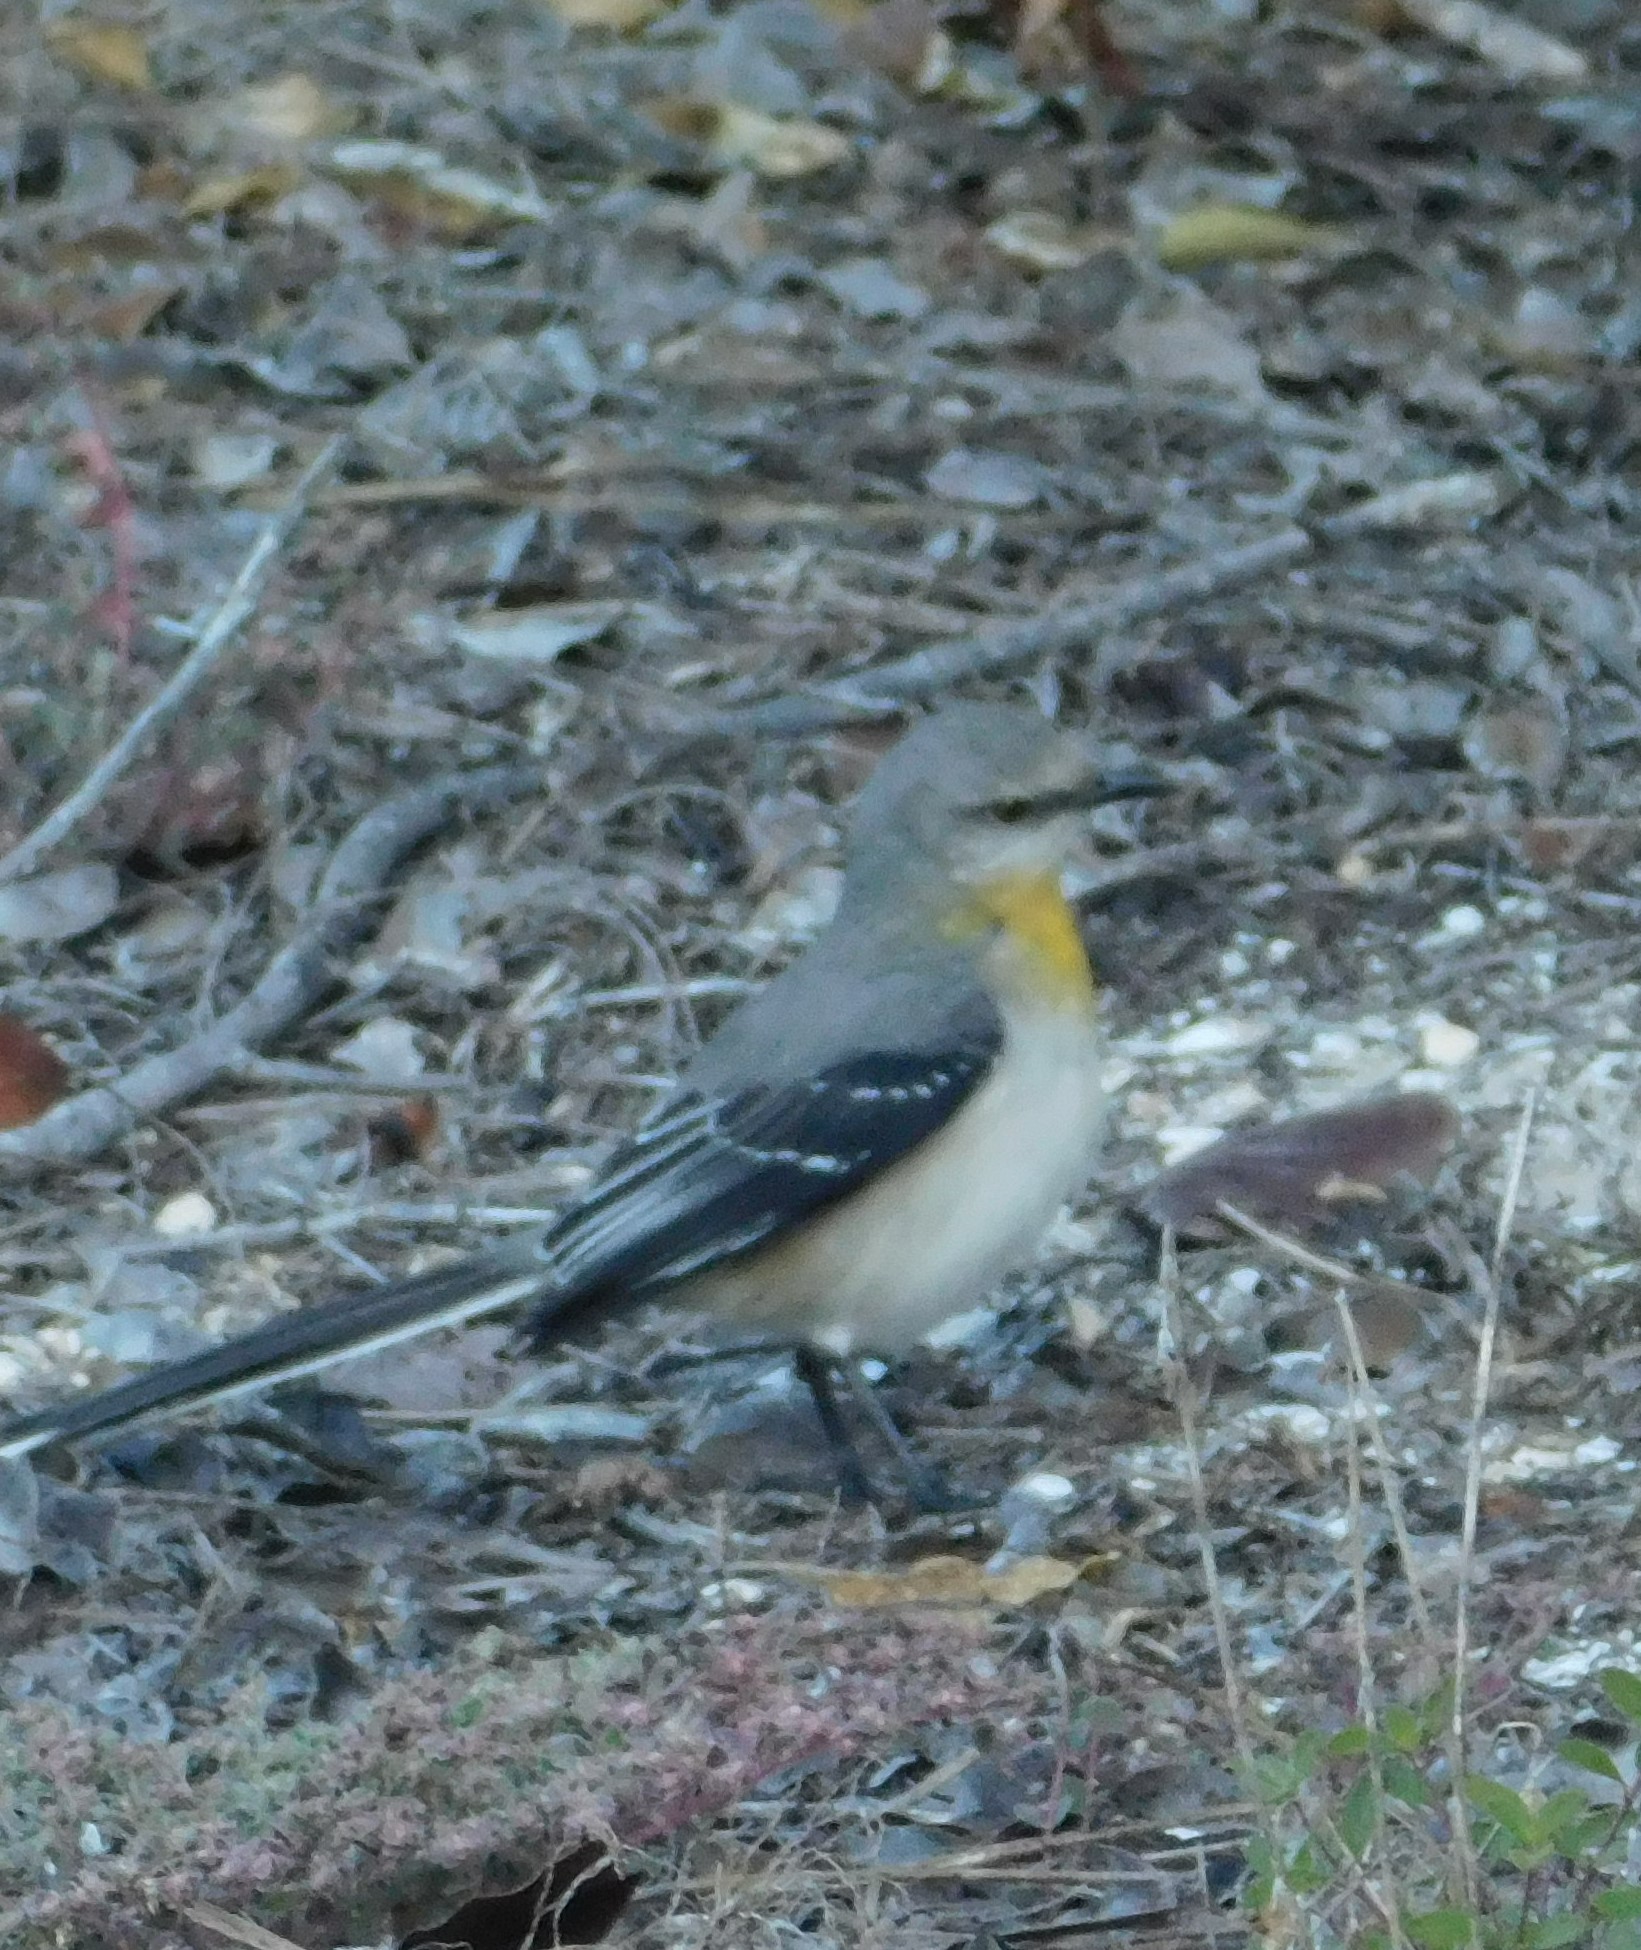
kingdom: Animalia
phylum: Chordata
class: Aves
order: Passeriformes
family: Mimidae
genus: Mimus
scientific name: Mimus gilvus
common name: Tropical mockingbird
